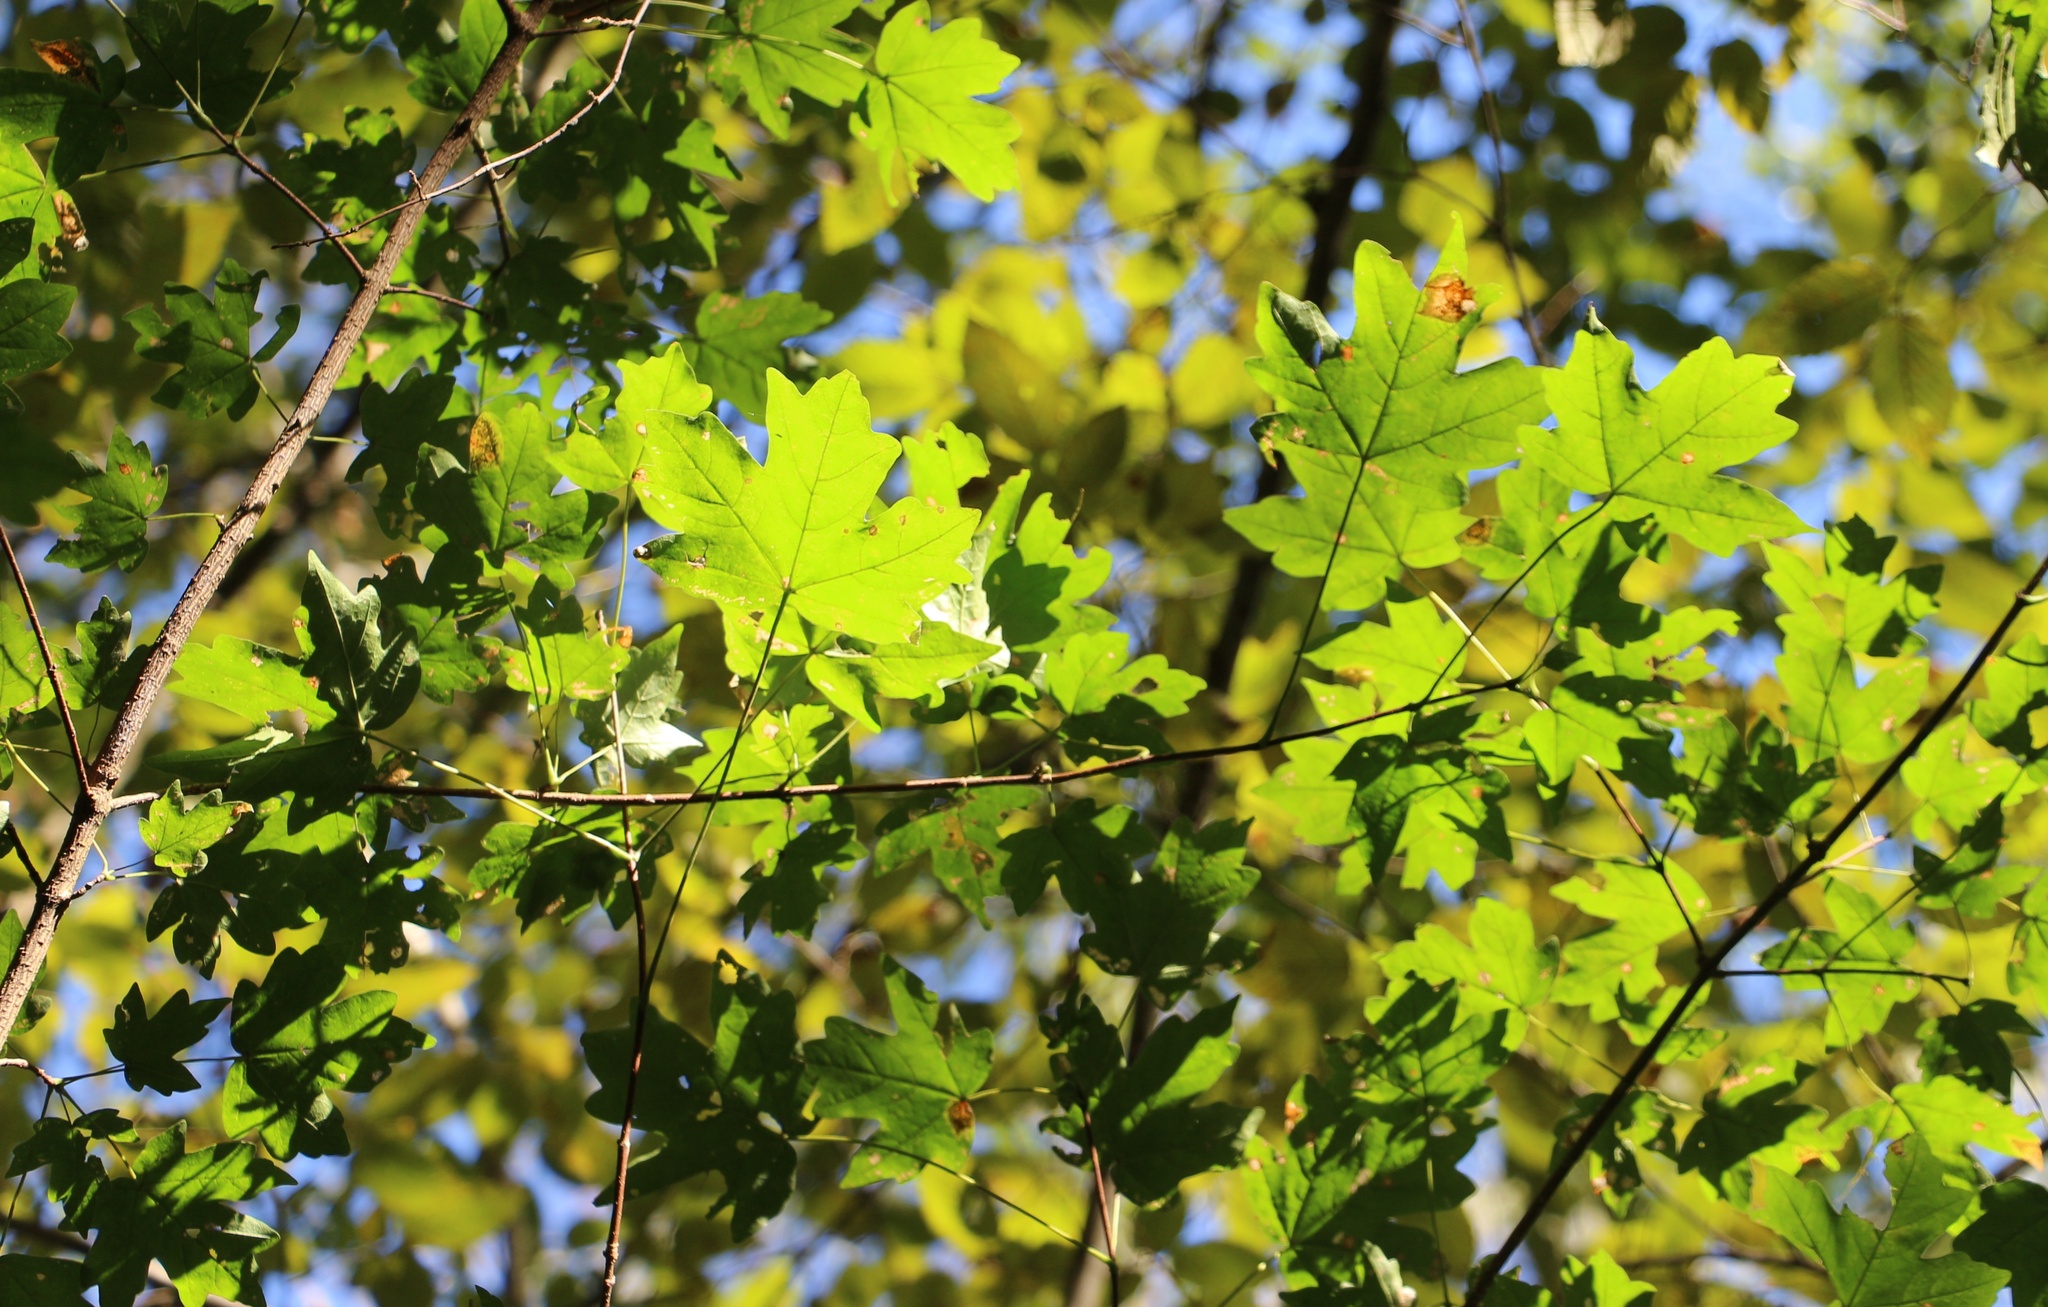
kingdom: Plantae
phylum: Tracheophyta
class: Magnoliopsida
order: Sapindales
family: Sapindaceae
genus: Acer
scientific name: Acer campestre
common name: Field maple
